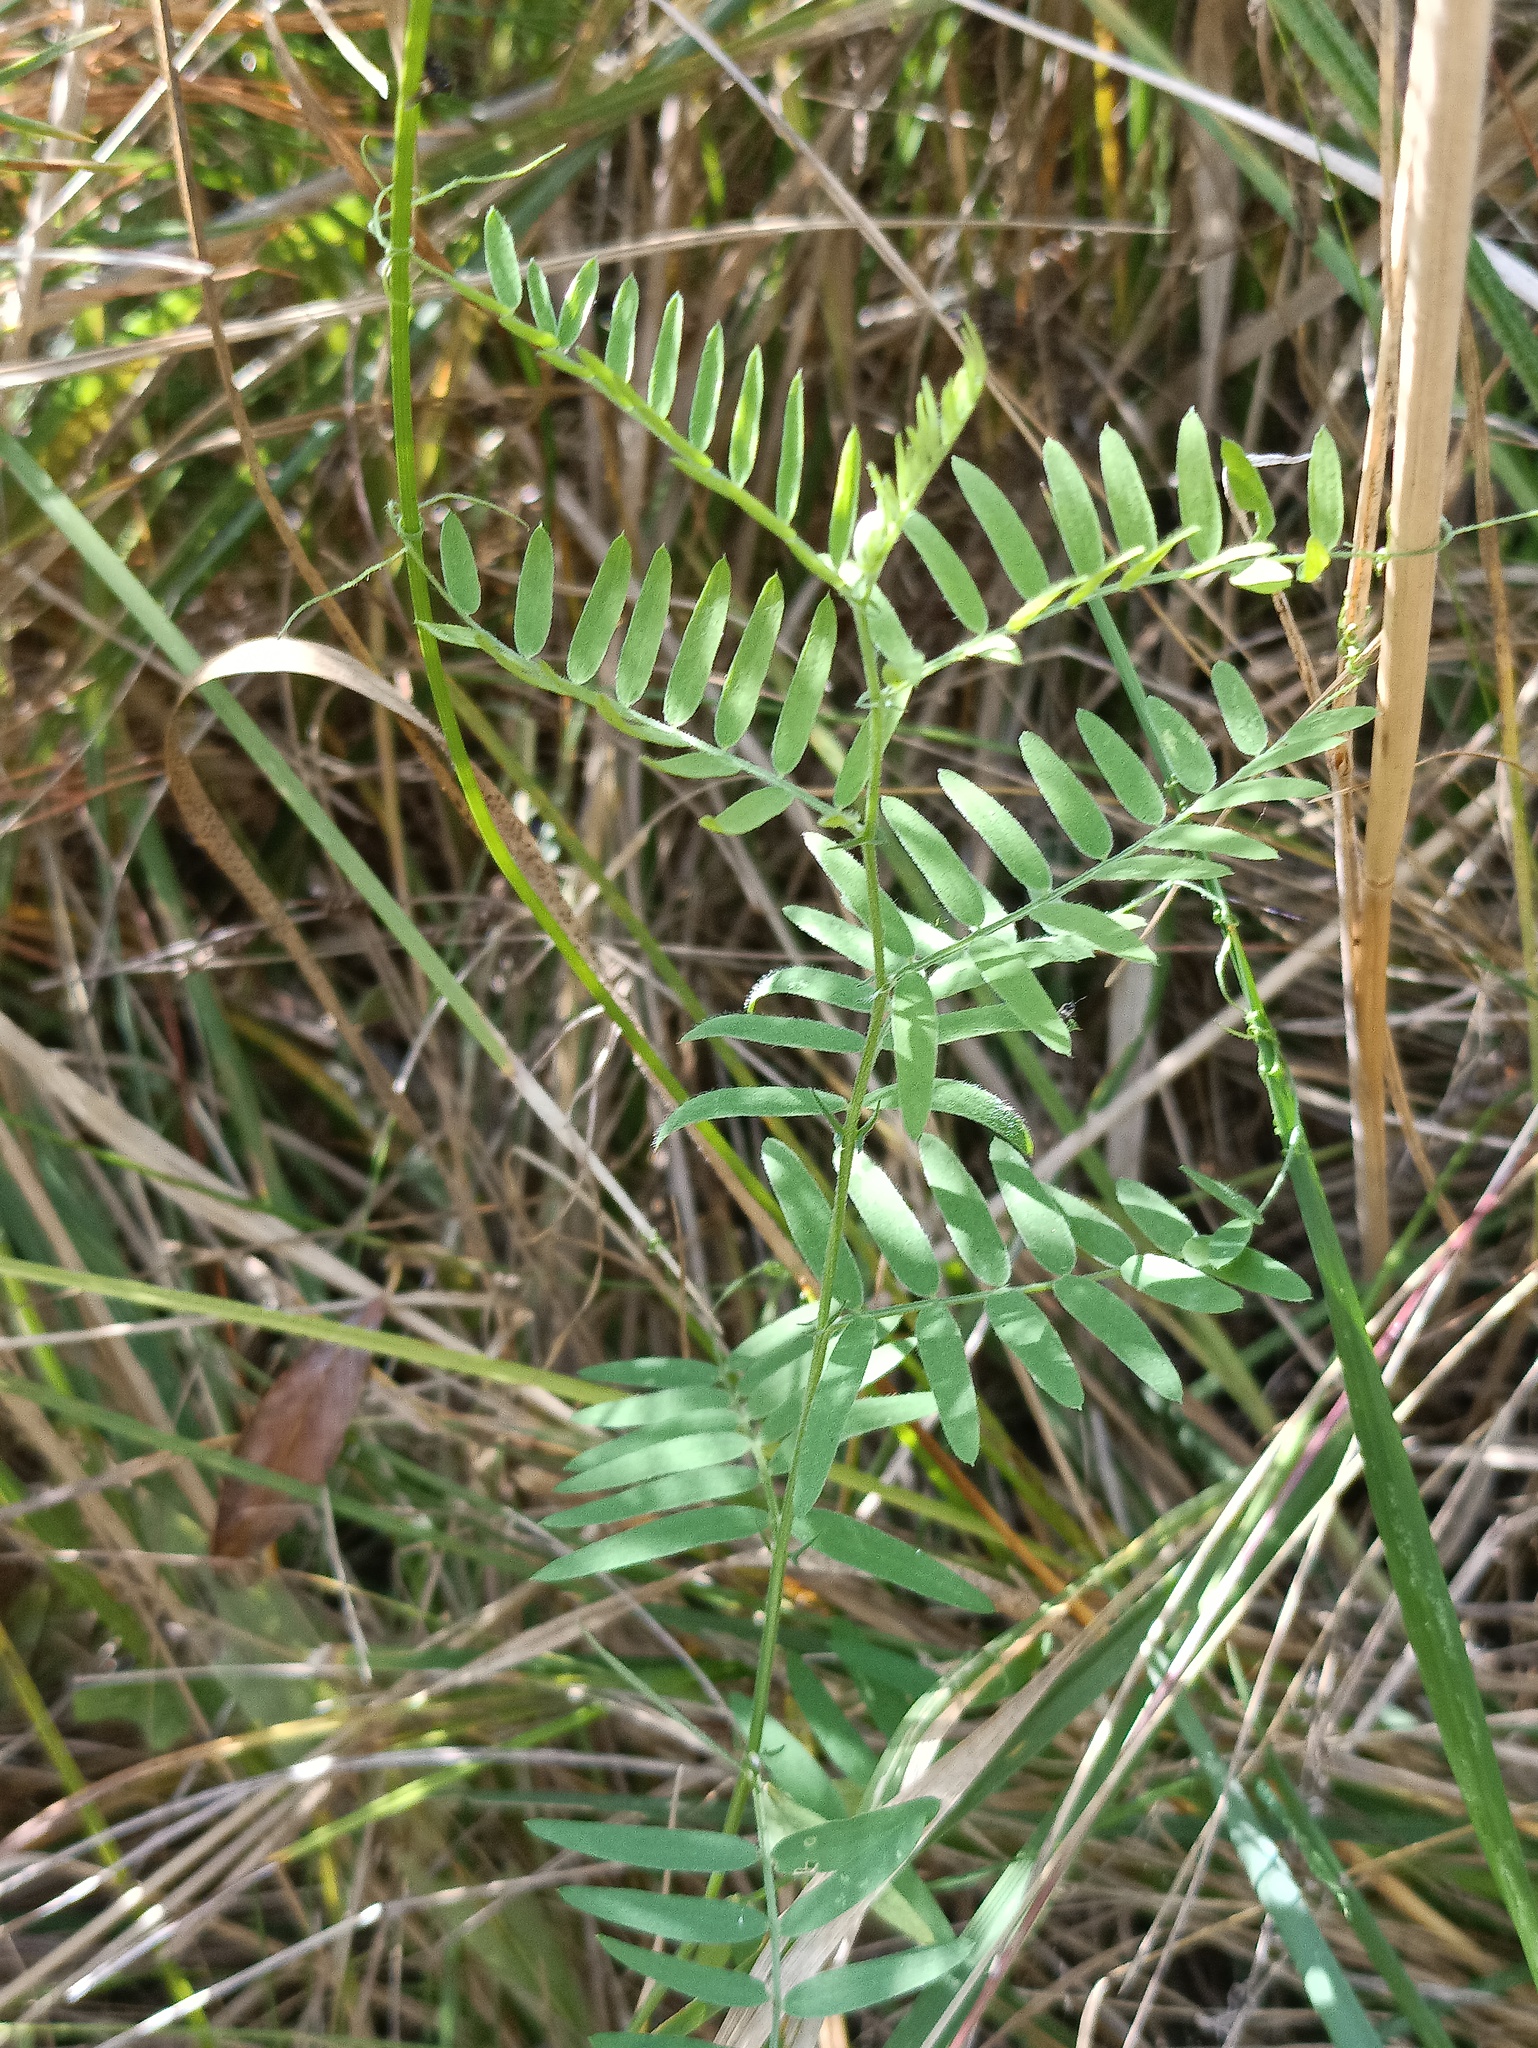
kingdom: Plantae
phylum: Tracheophyta
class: Magnoliopsida
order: Fabales
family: Fabaceae
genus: Vicia
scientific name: Vicia cracca
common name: Bird vetch
